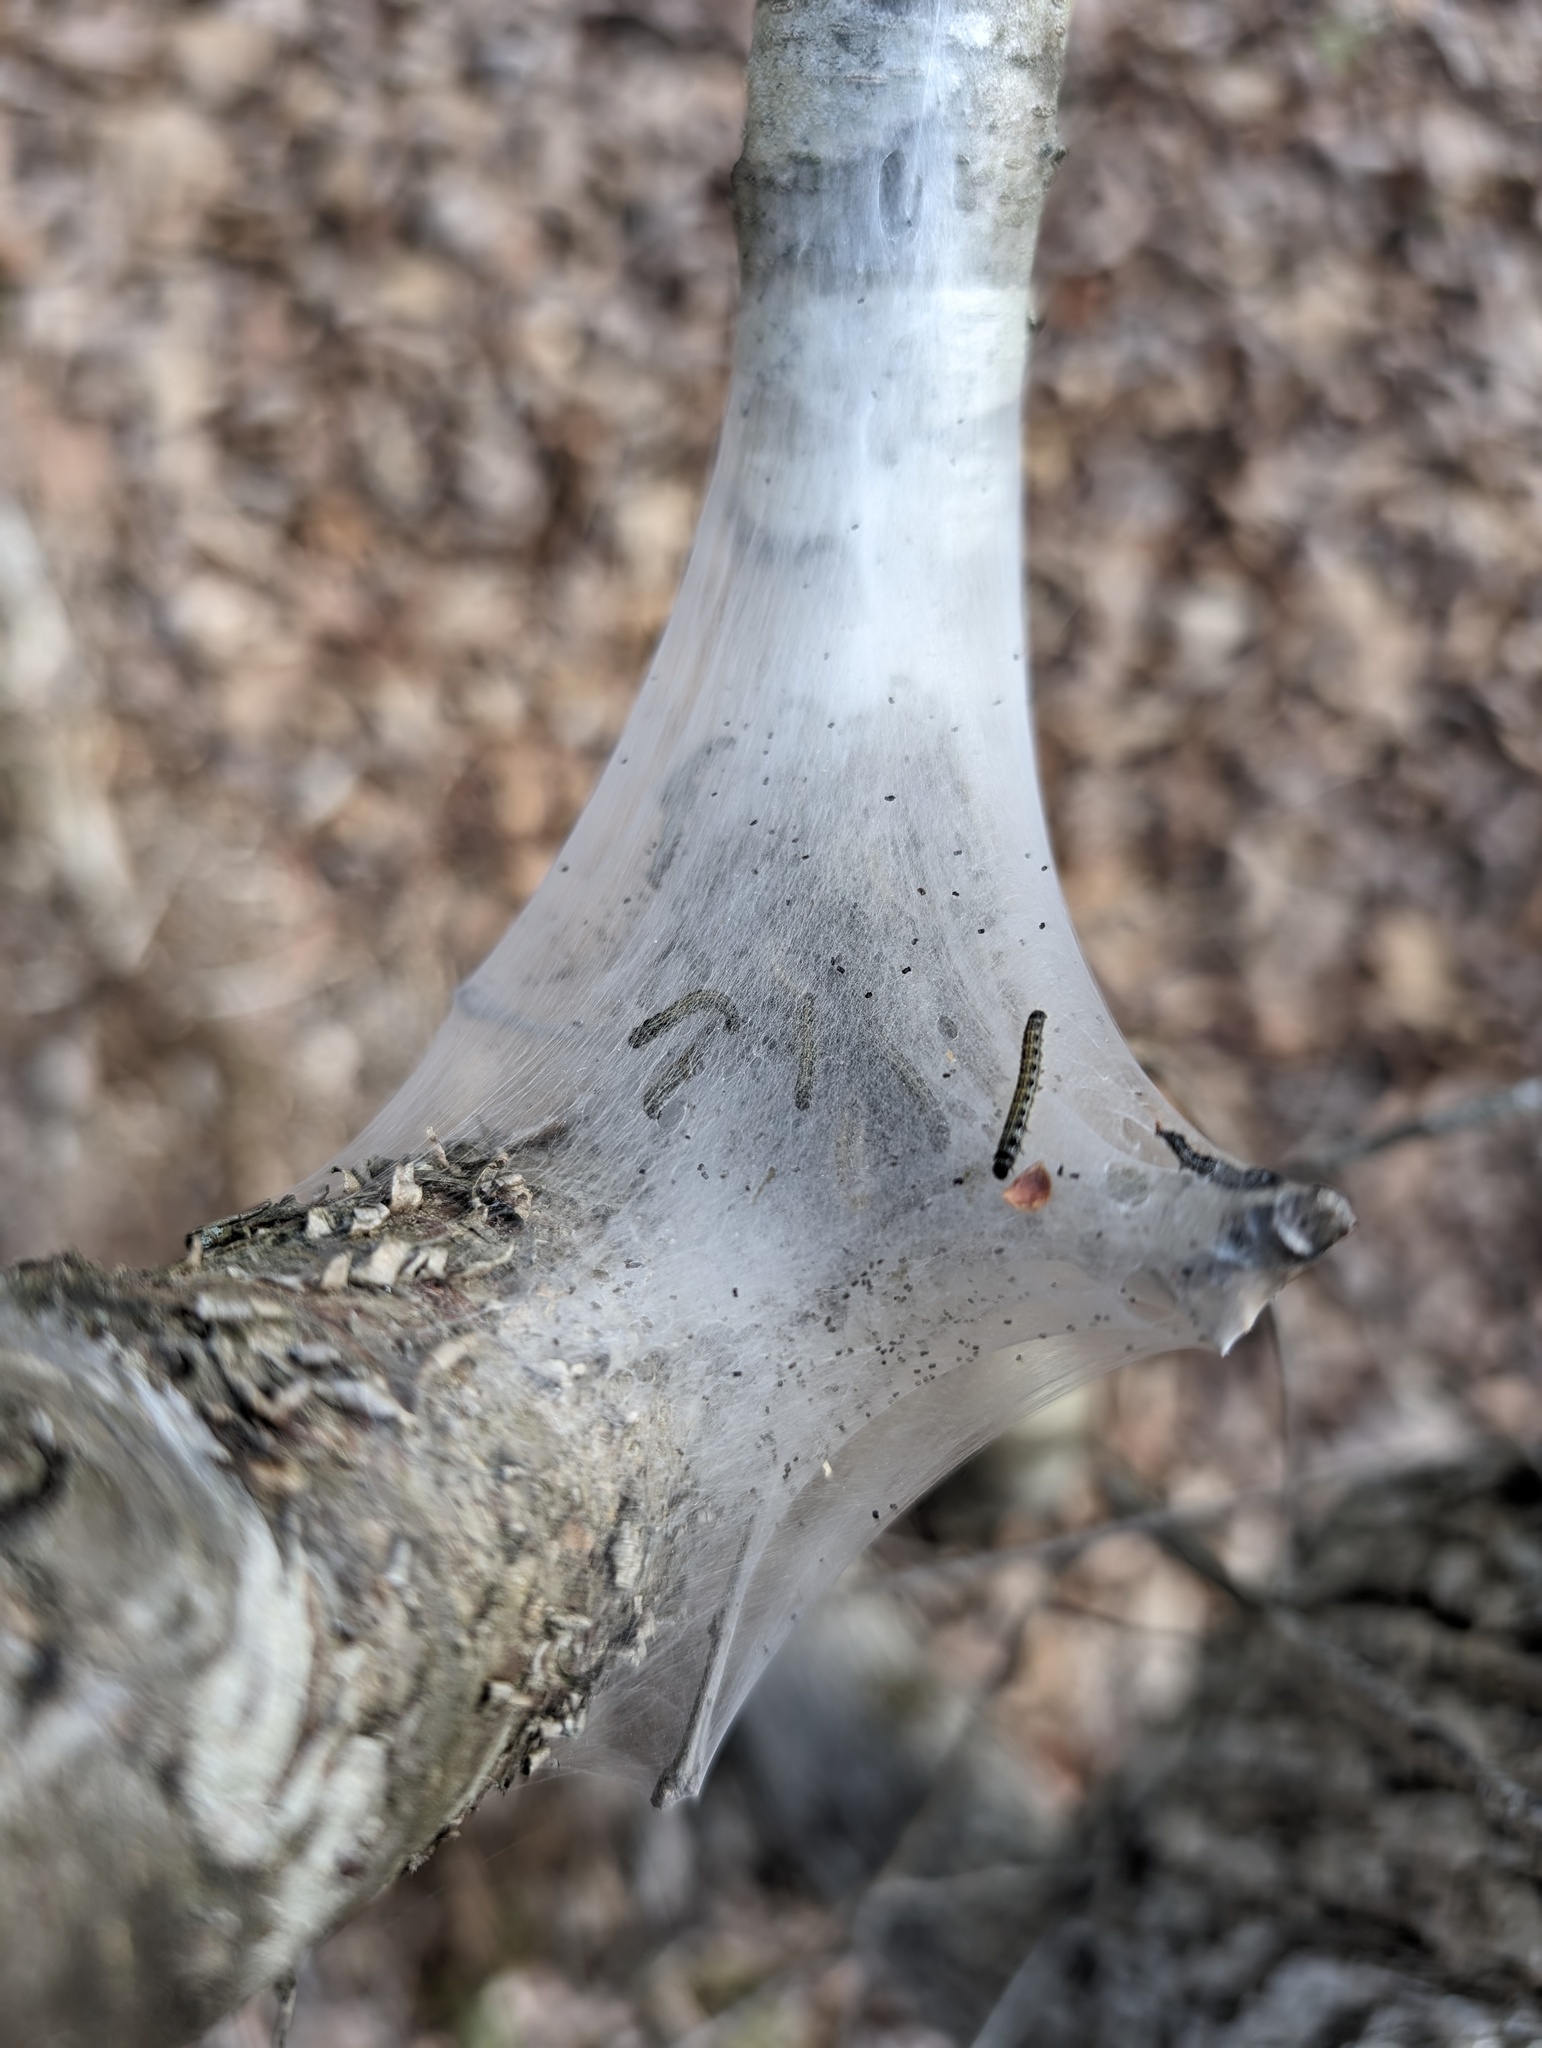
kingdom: Animalia
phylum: Arthropoda
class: Insecta
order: Lepidoptera
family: Lasiocampidae
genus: Malacosoma
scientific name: Malacosoma americana
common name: Eastern tent caterpillar moth
